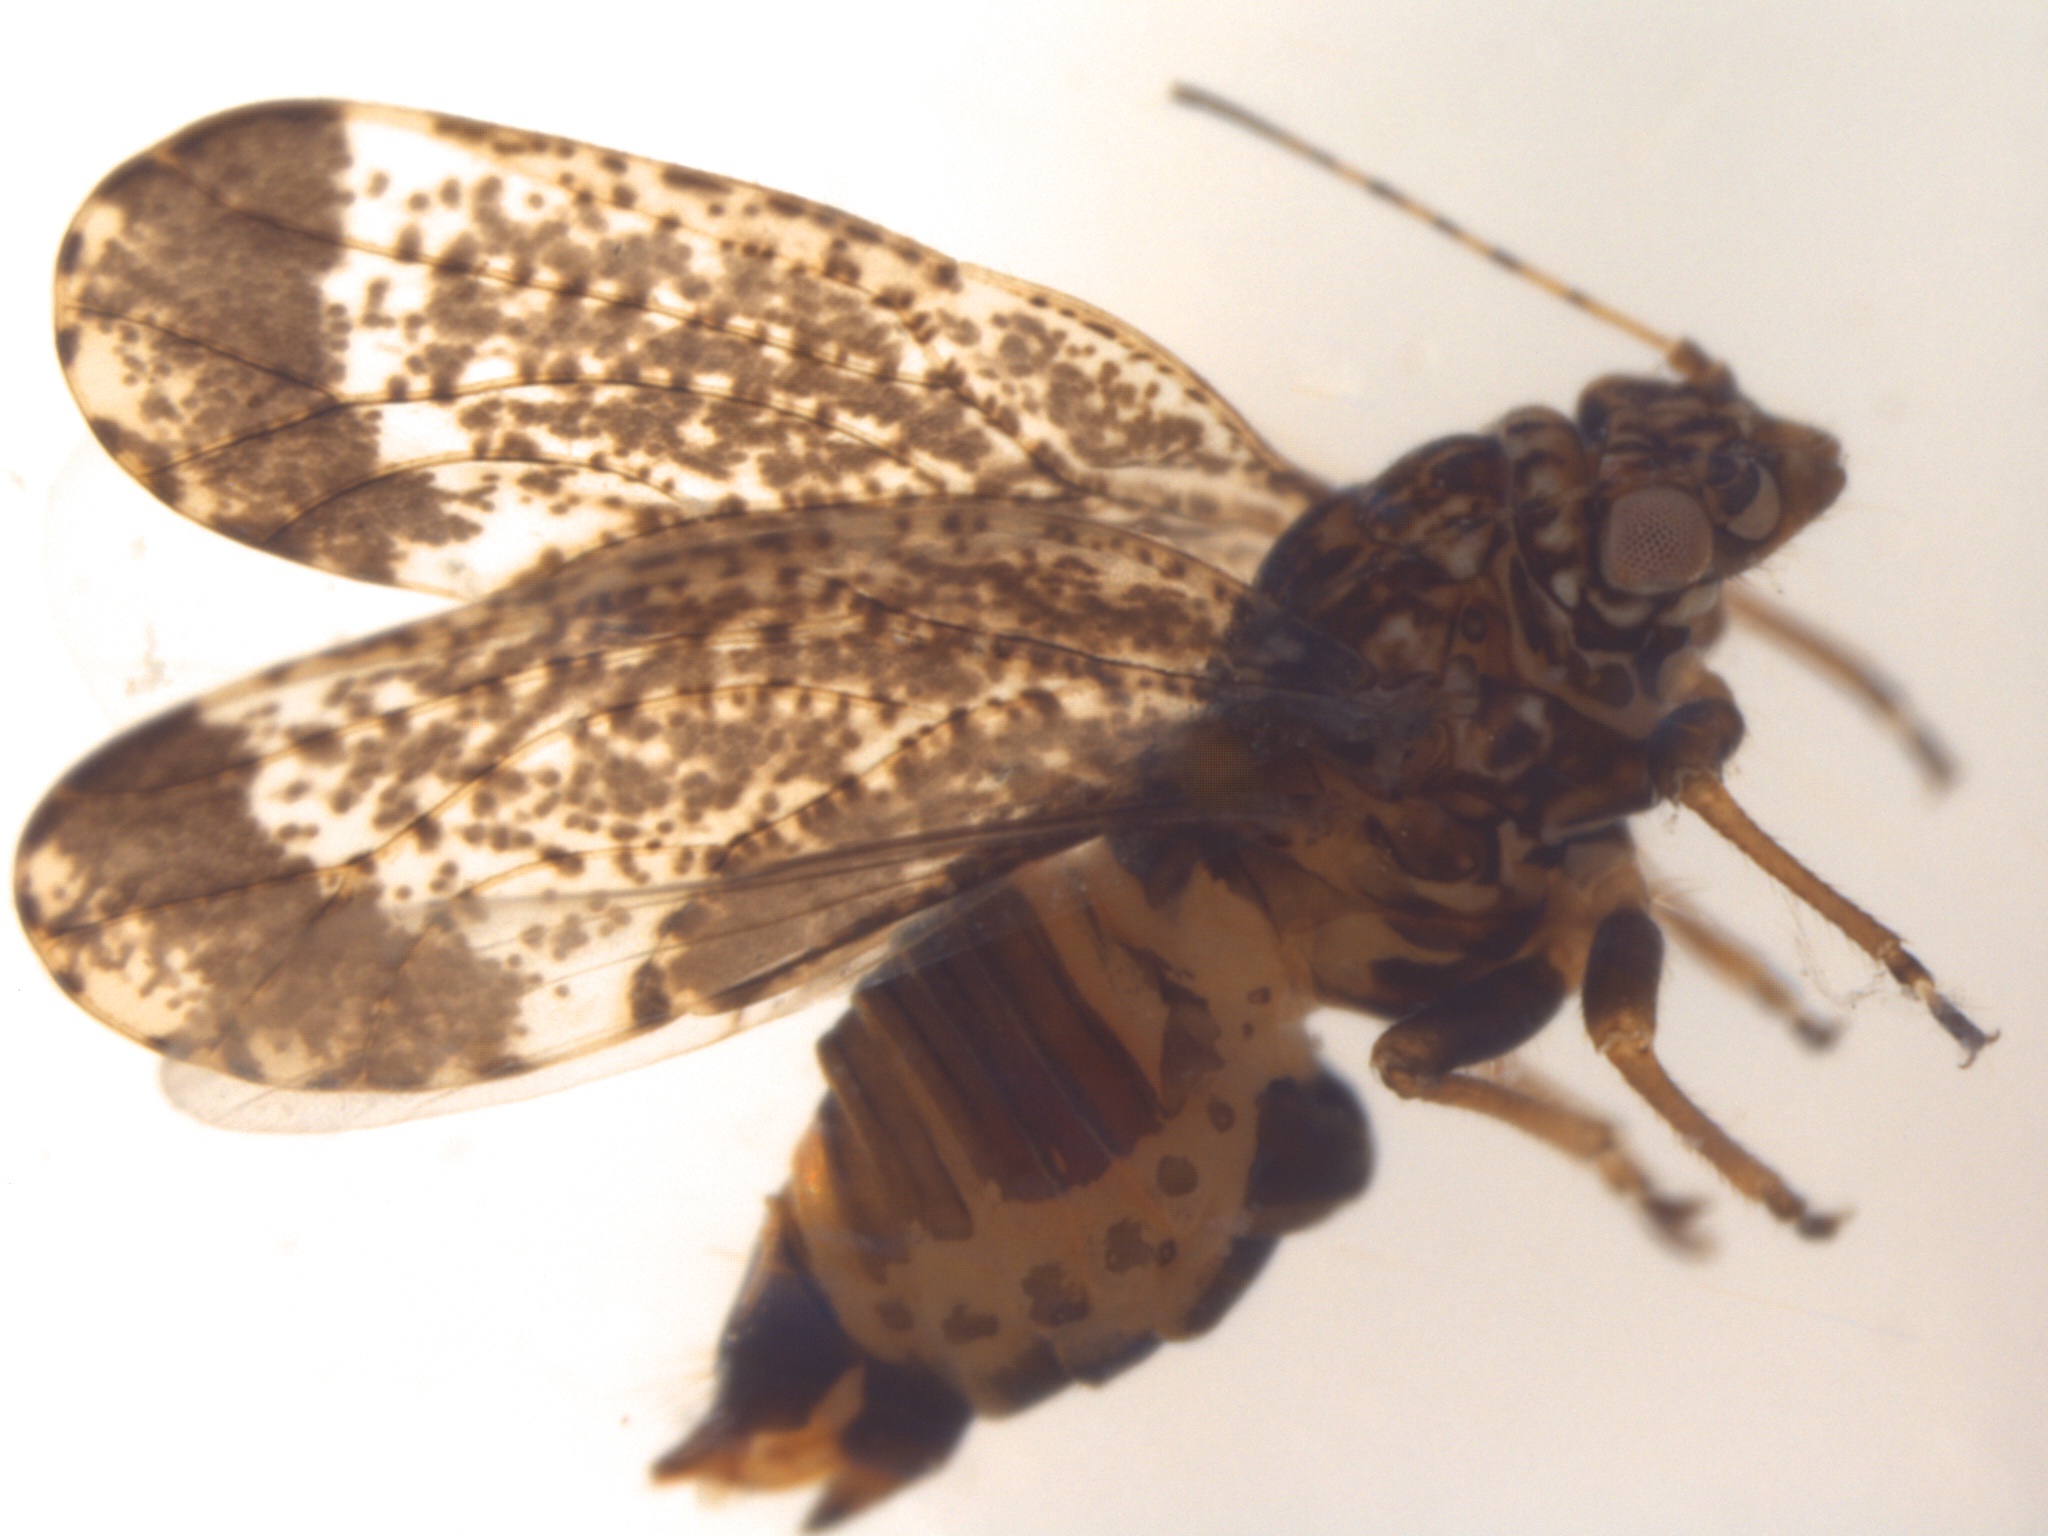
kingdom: Animalia
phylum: Arthropoda
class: Insecta
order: Hemiptera
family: Psyllidae
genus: Acizzia
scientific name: Acizzia apicalis
